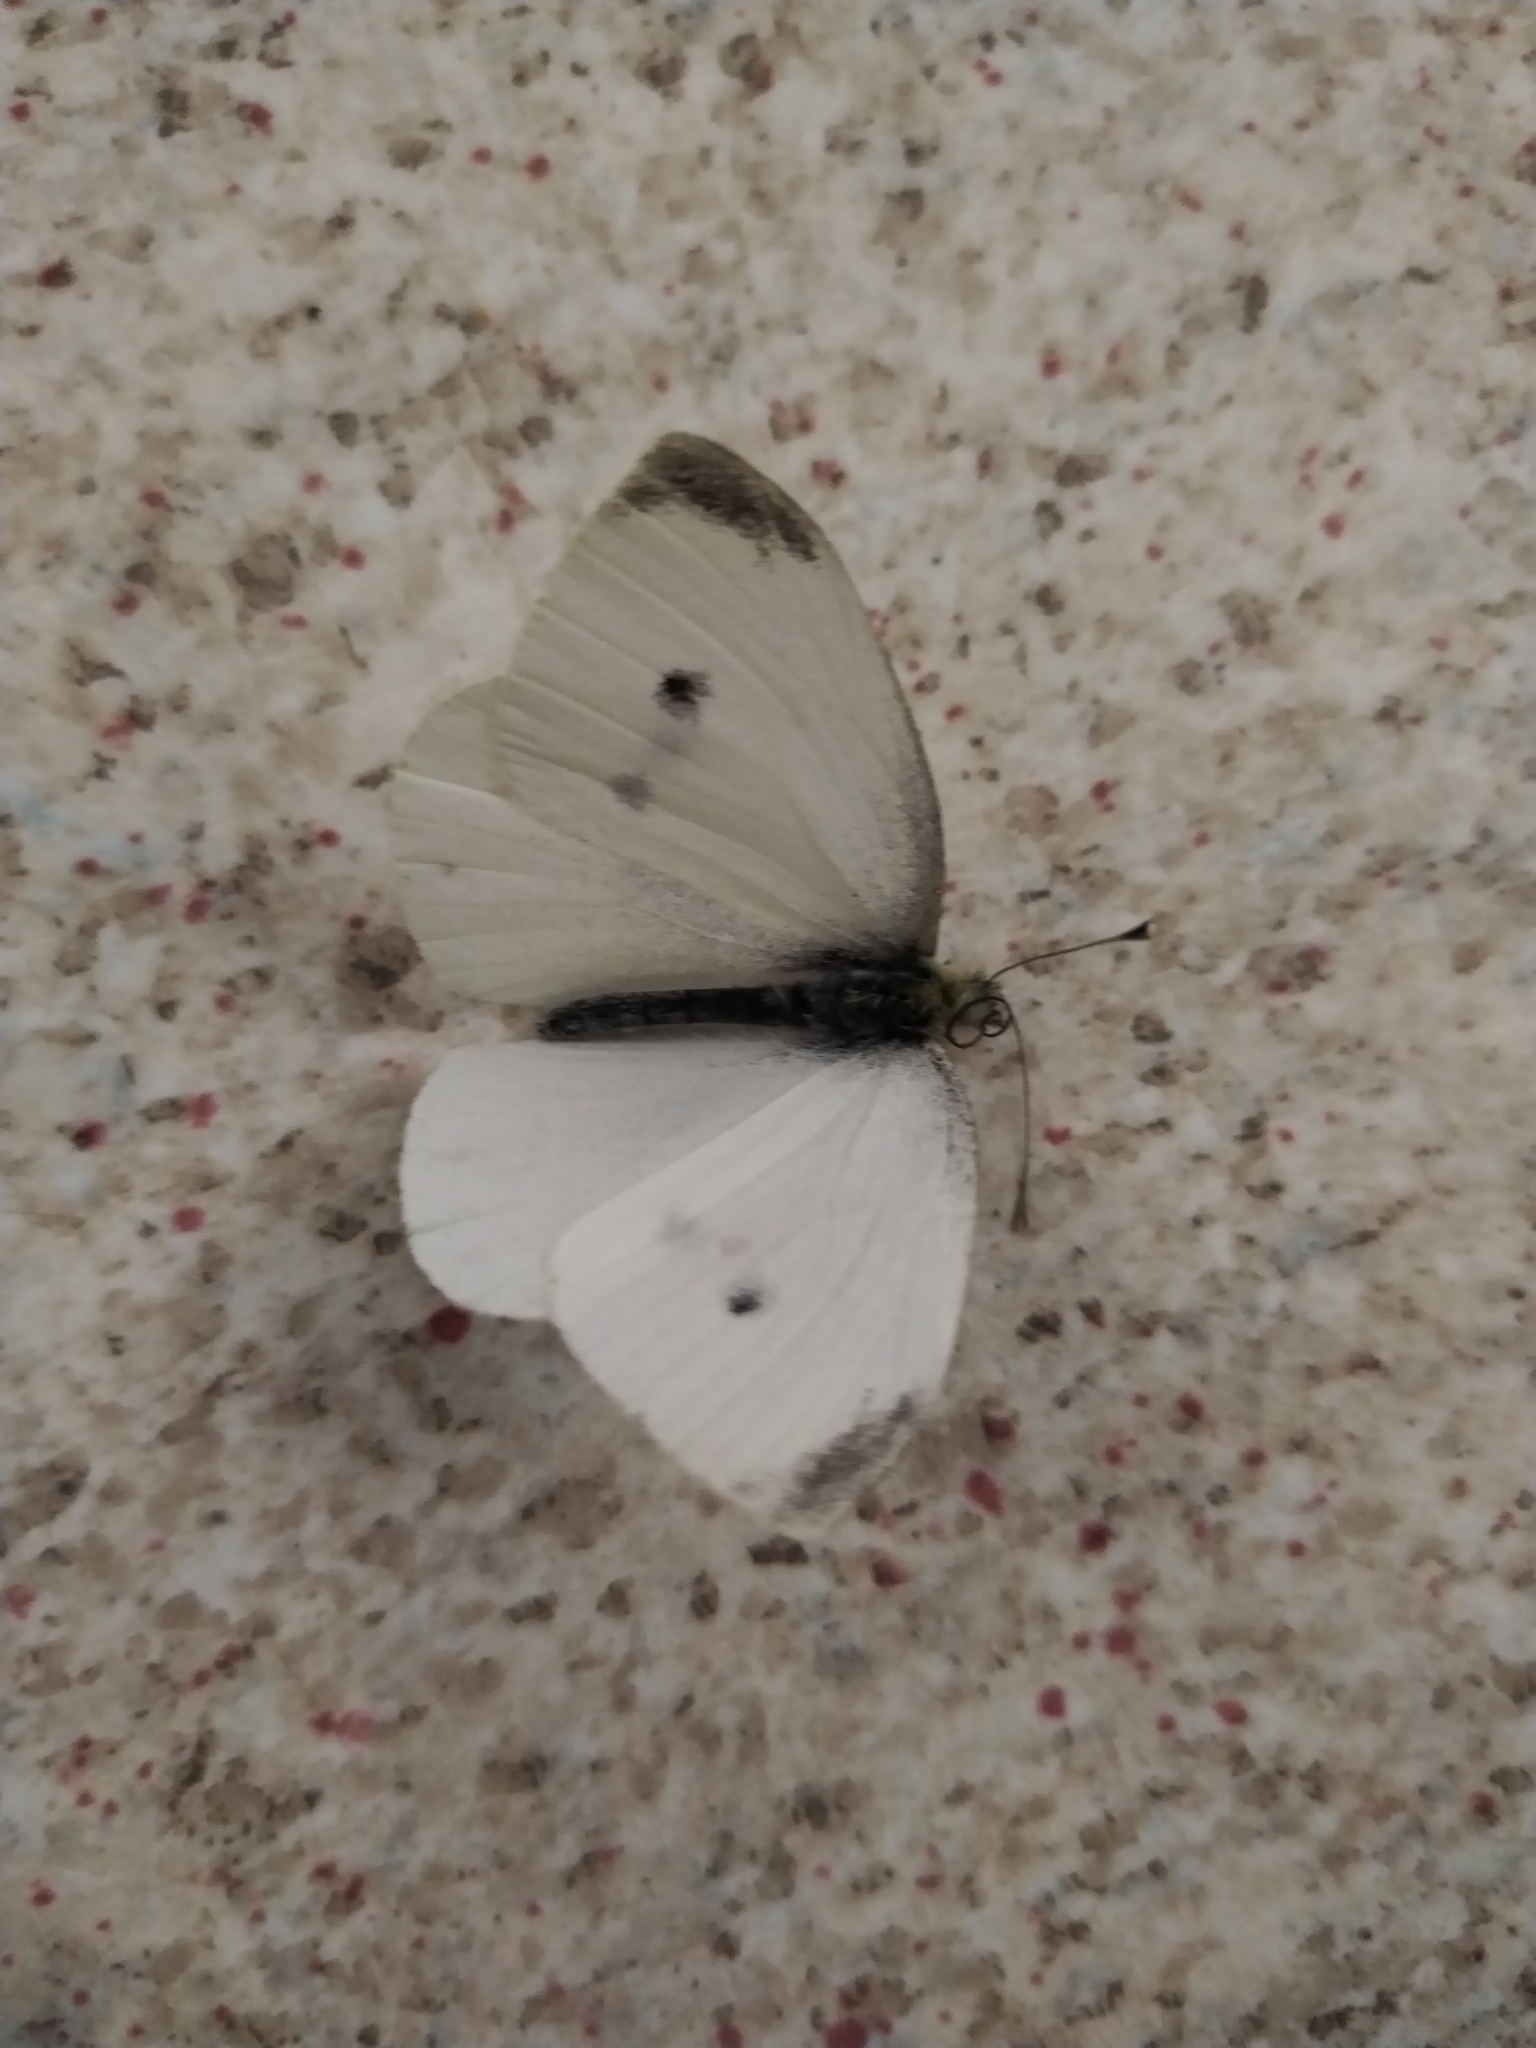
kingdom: Animalia
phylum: Arthropoda
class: Insecta
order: Lepidoptera
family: Pieridae
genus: Pieris
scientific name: Pieris rapae
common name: Small white
